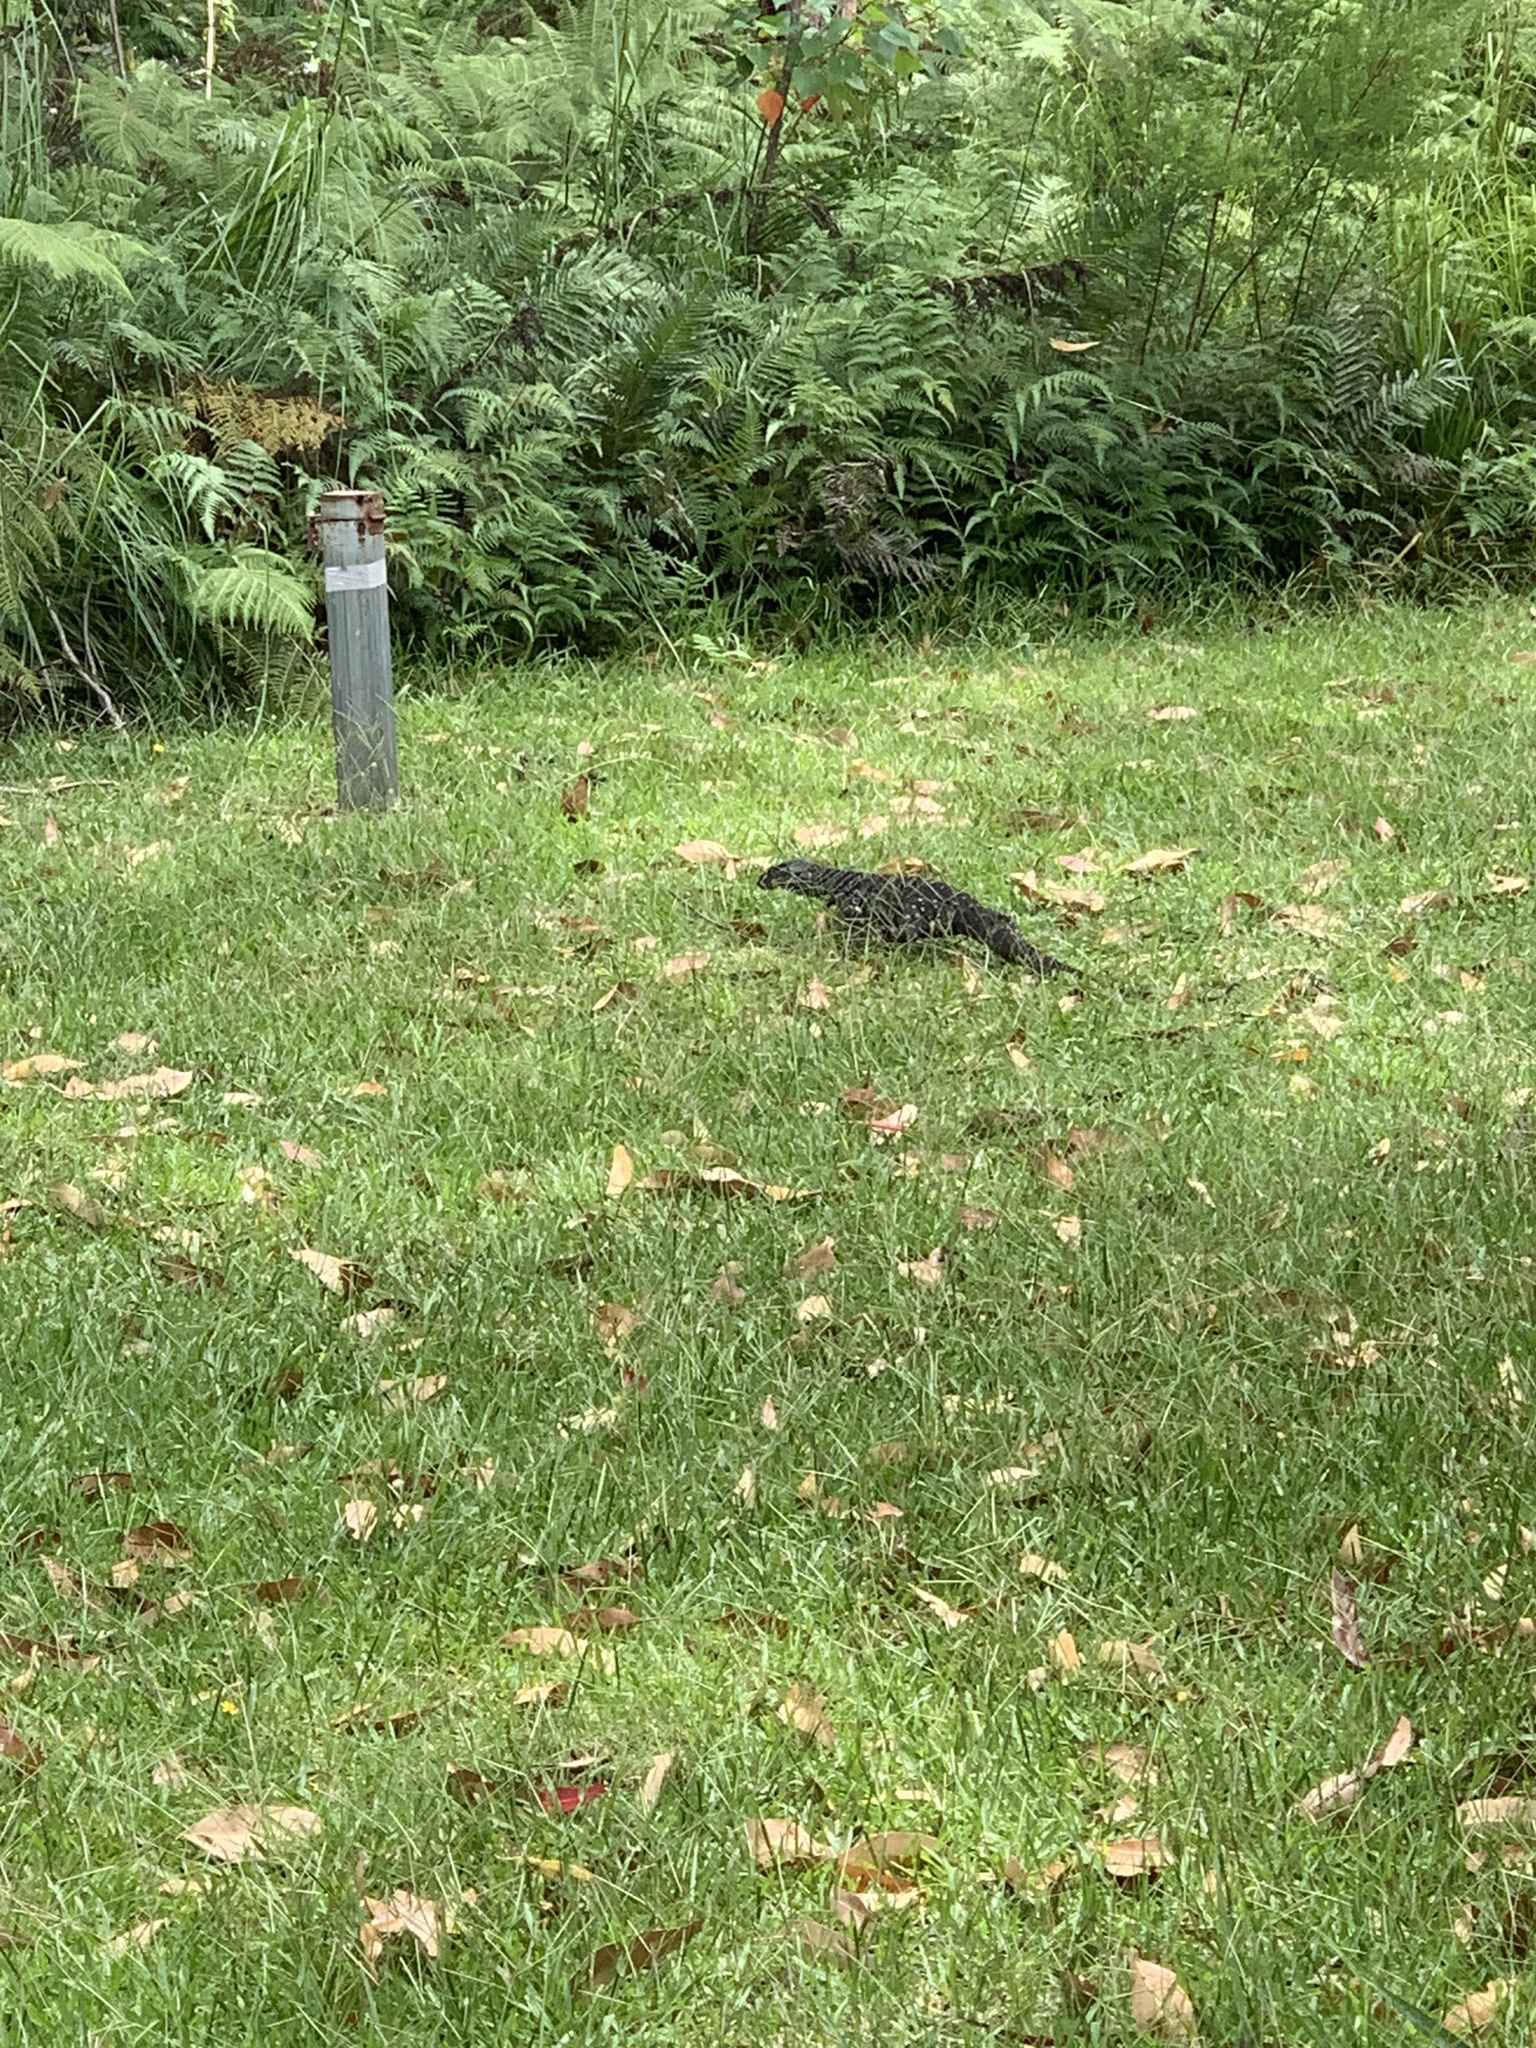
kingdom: Animalia
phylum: Chordata
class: Squamata
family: Varanidae
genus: Varanus
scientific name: Varanus varius
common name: Lace monitor
